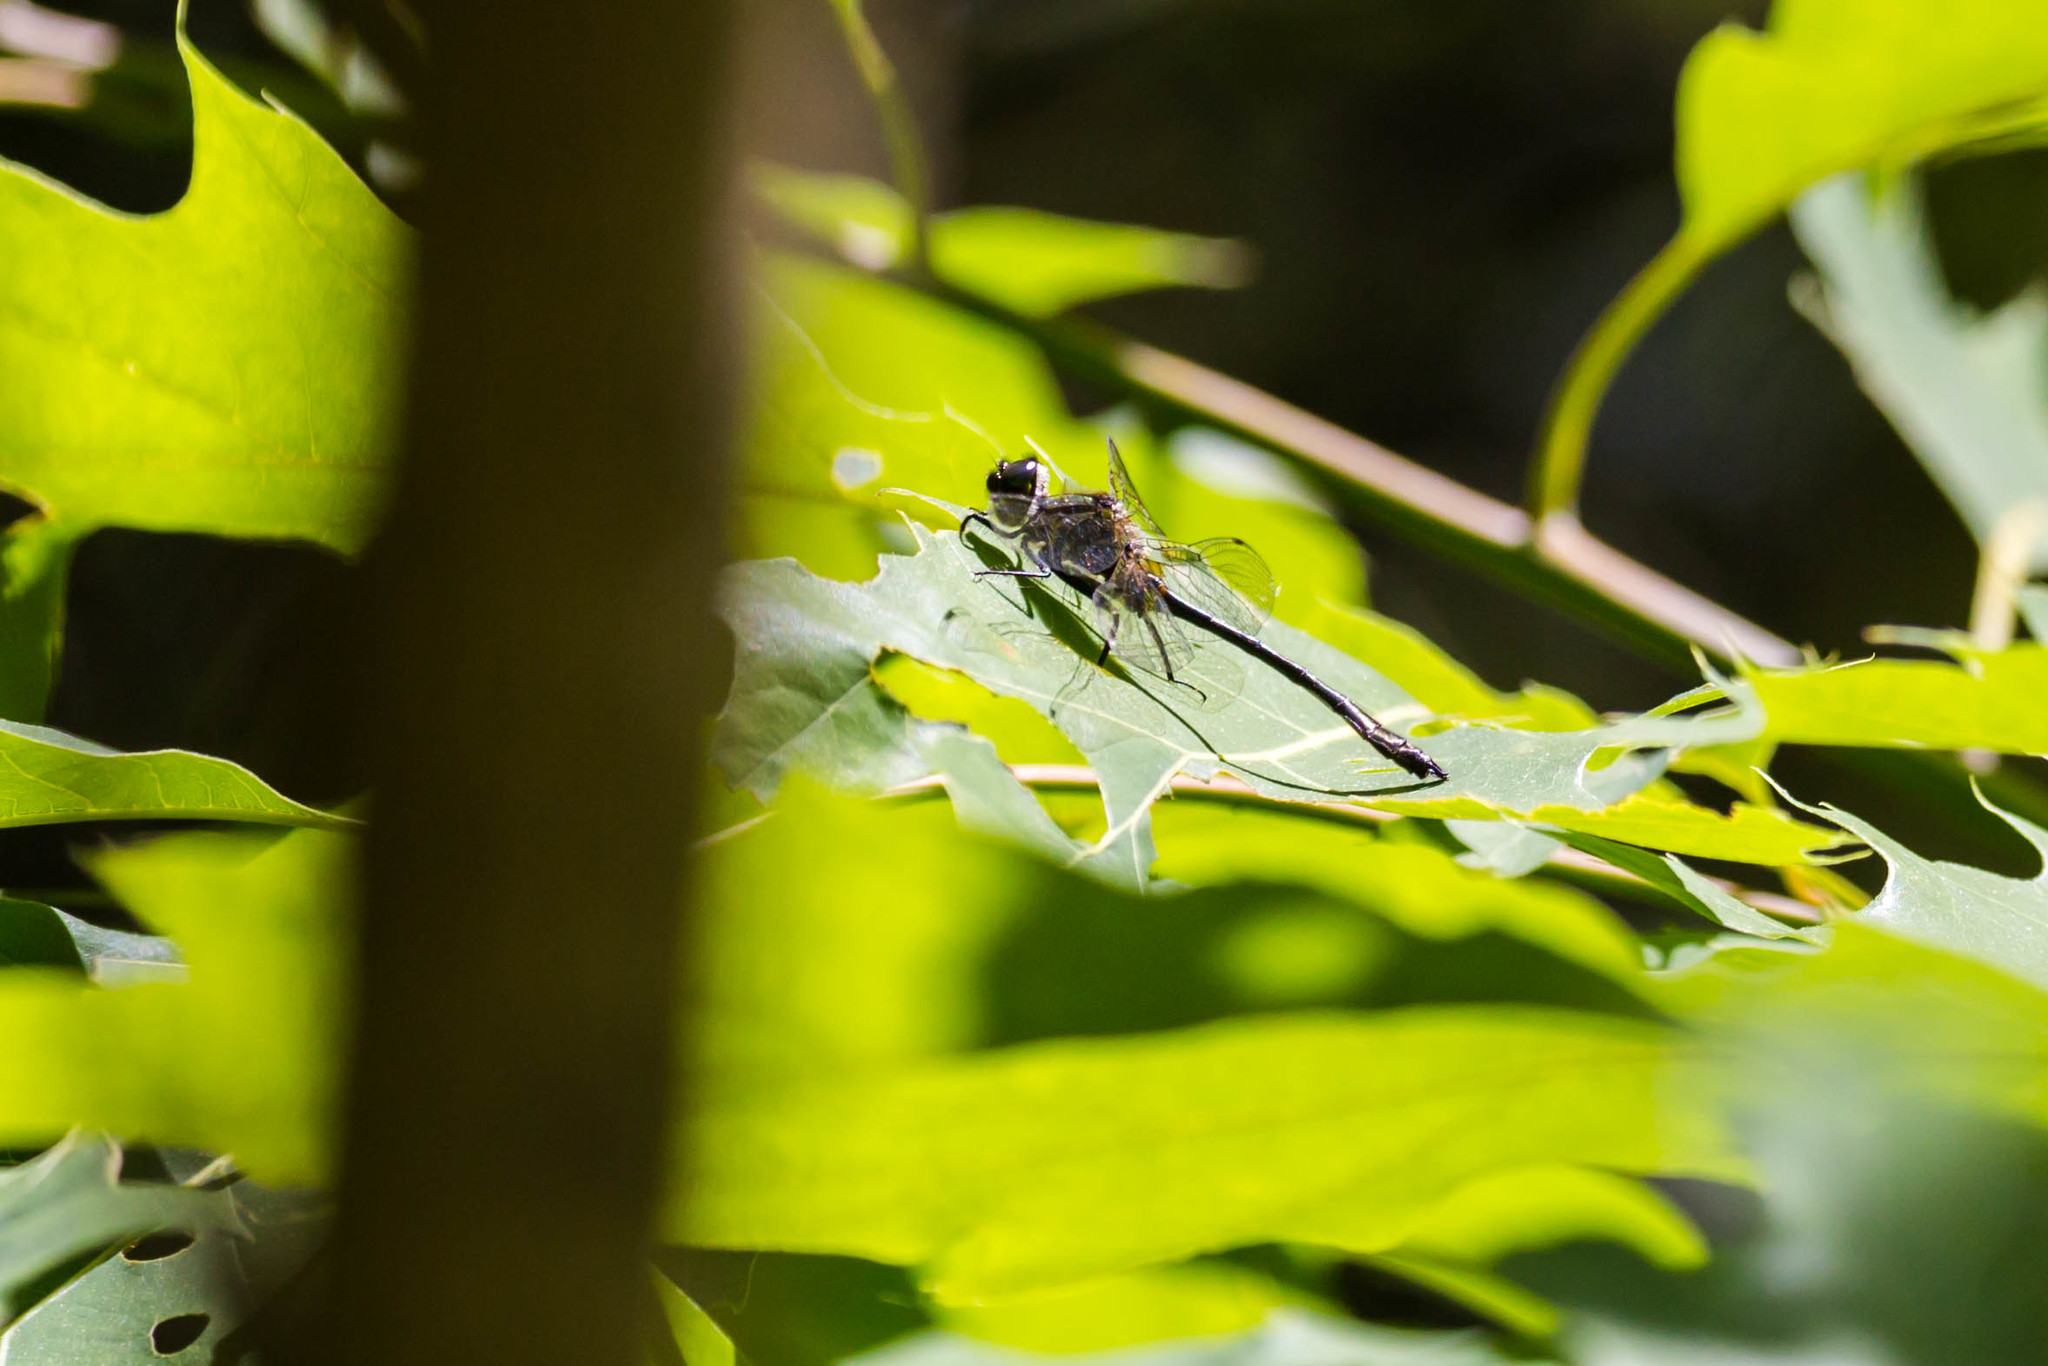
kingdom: Animalia
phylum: Arthropoda
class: Insecta
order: Odonata
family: Corduliidae
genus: Dorocordulia
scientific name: Dorocordulia lepida
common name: Petite emerald
